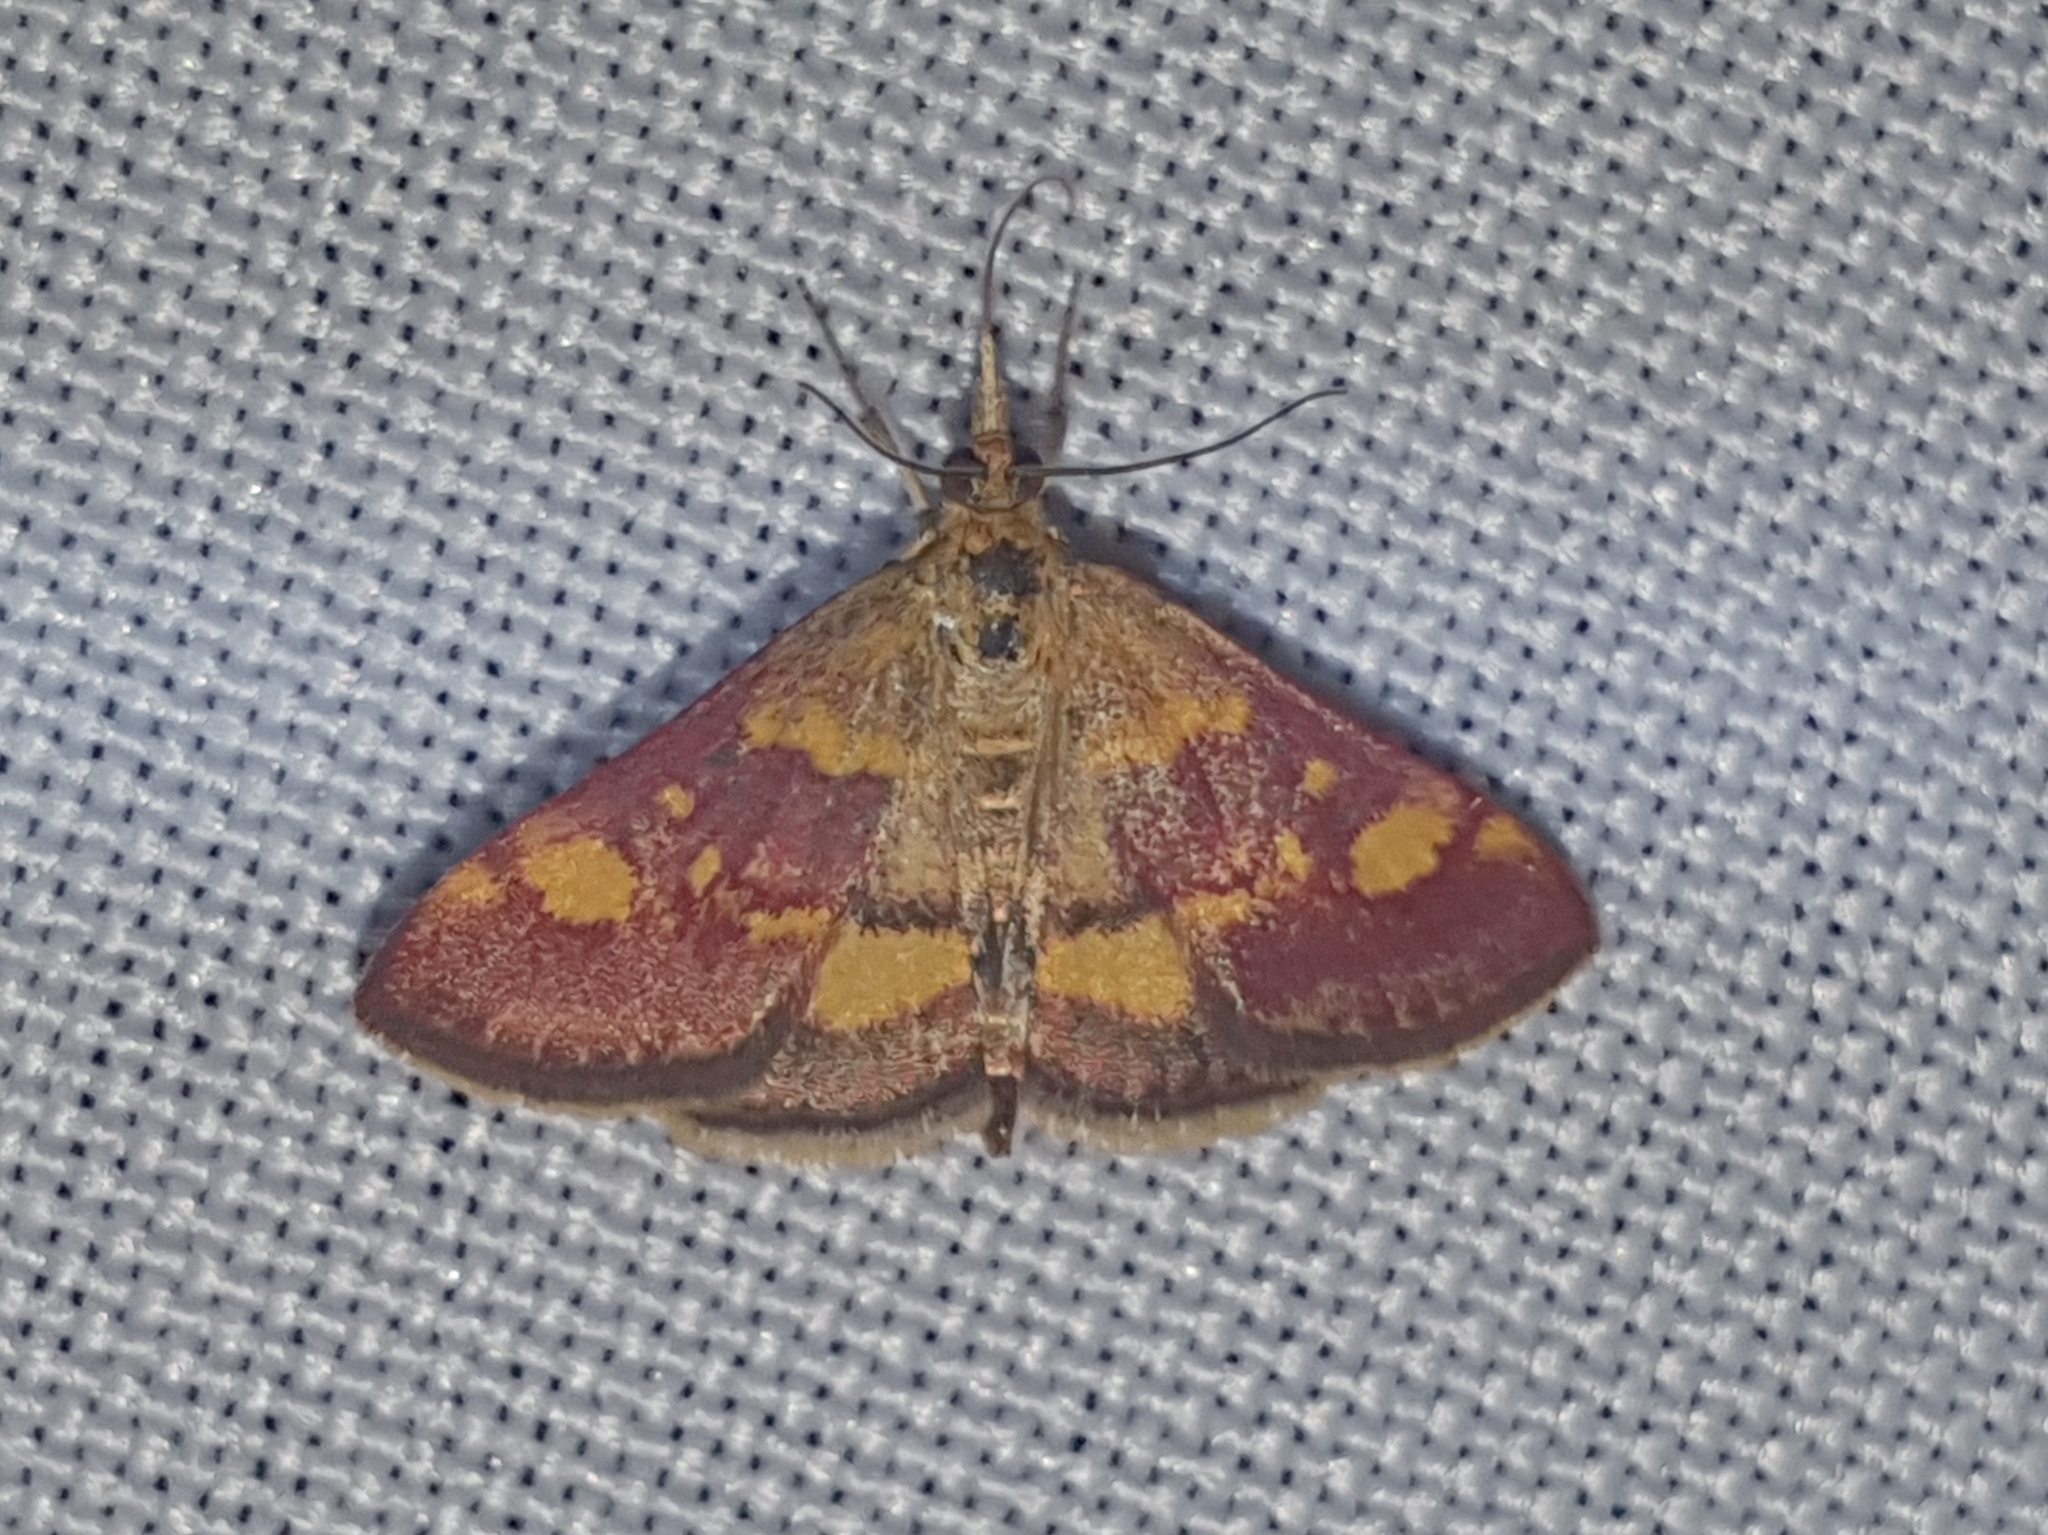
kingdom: Animalia
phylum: Arthropoda
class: Insecta
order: Lepidoptera
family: Crambidae
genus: Pyrausta
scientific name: Pyrausta aurata
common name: Small purple & gold
